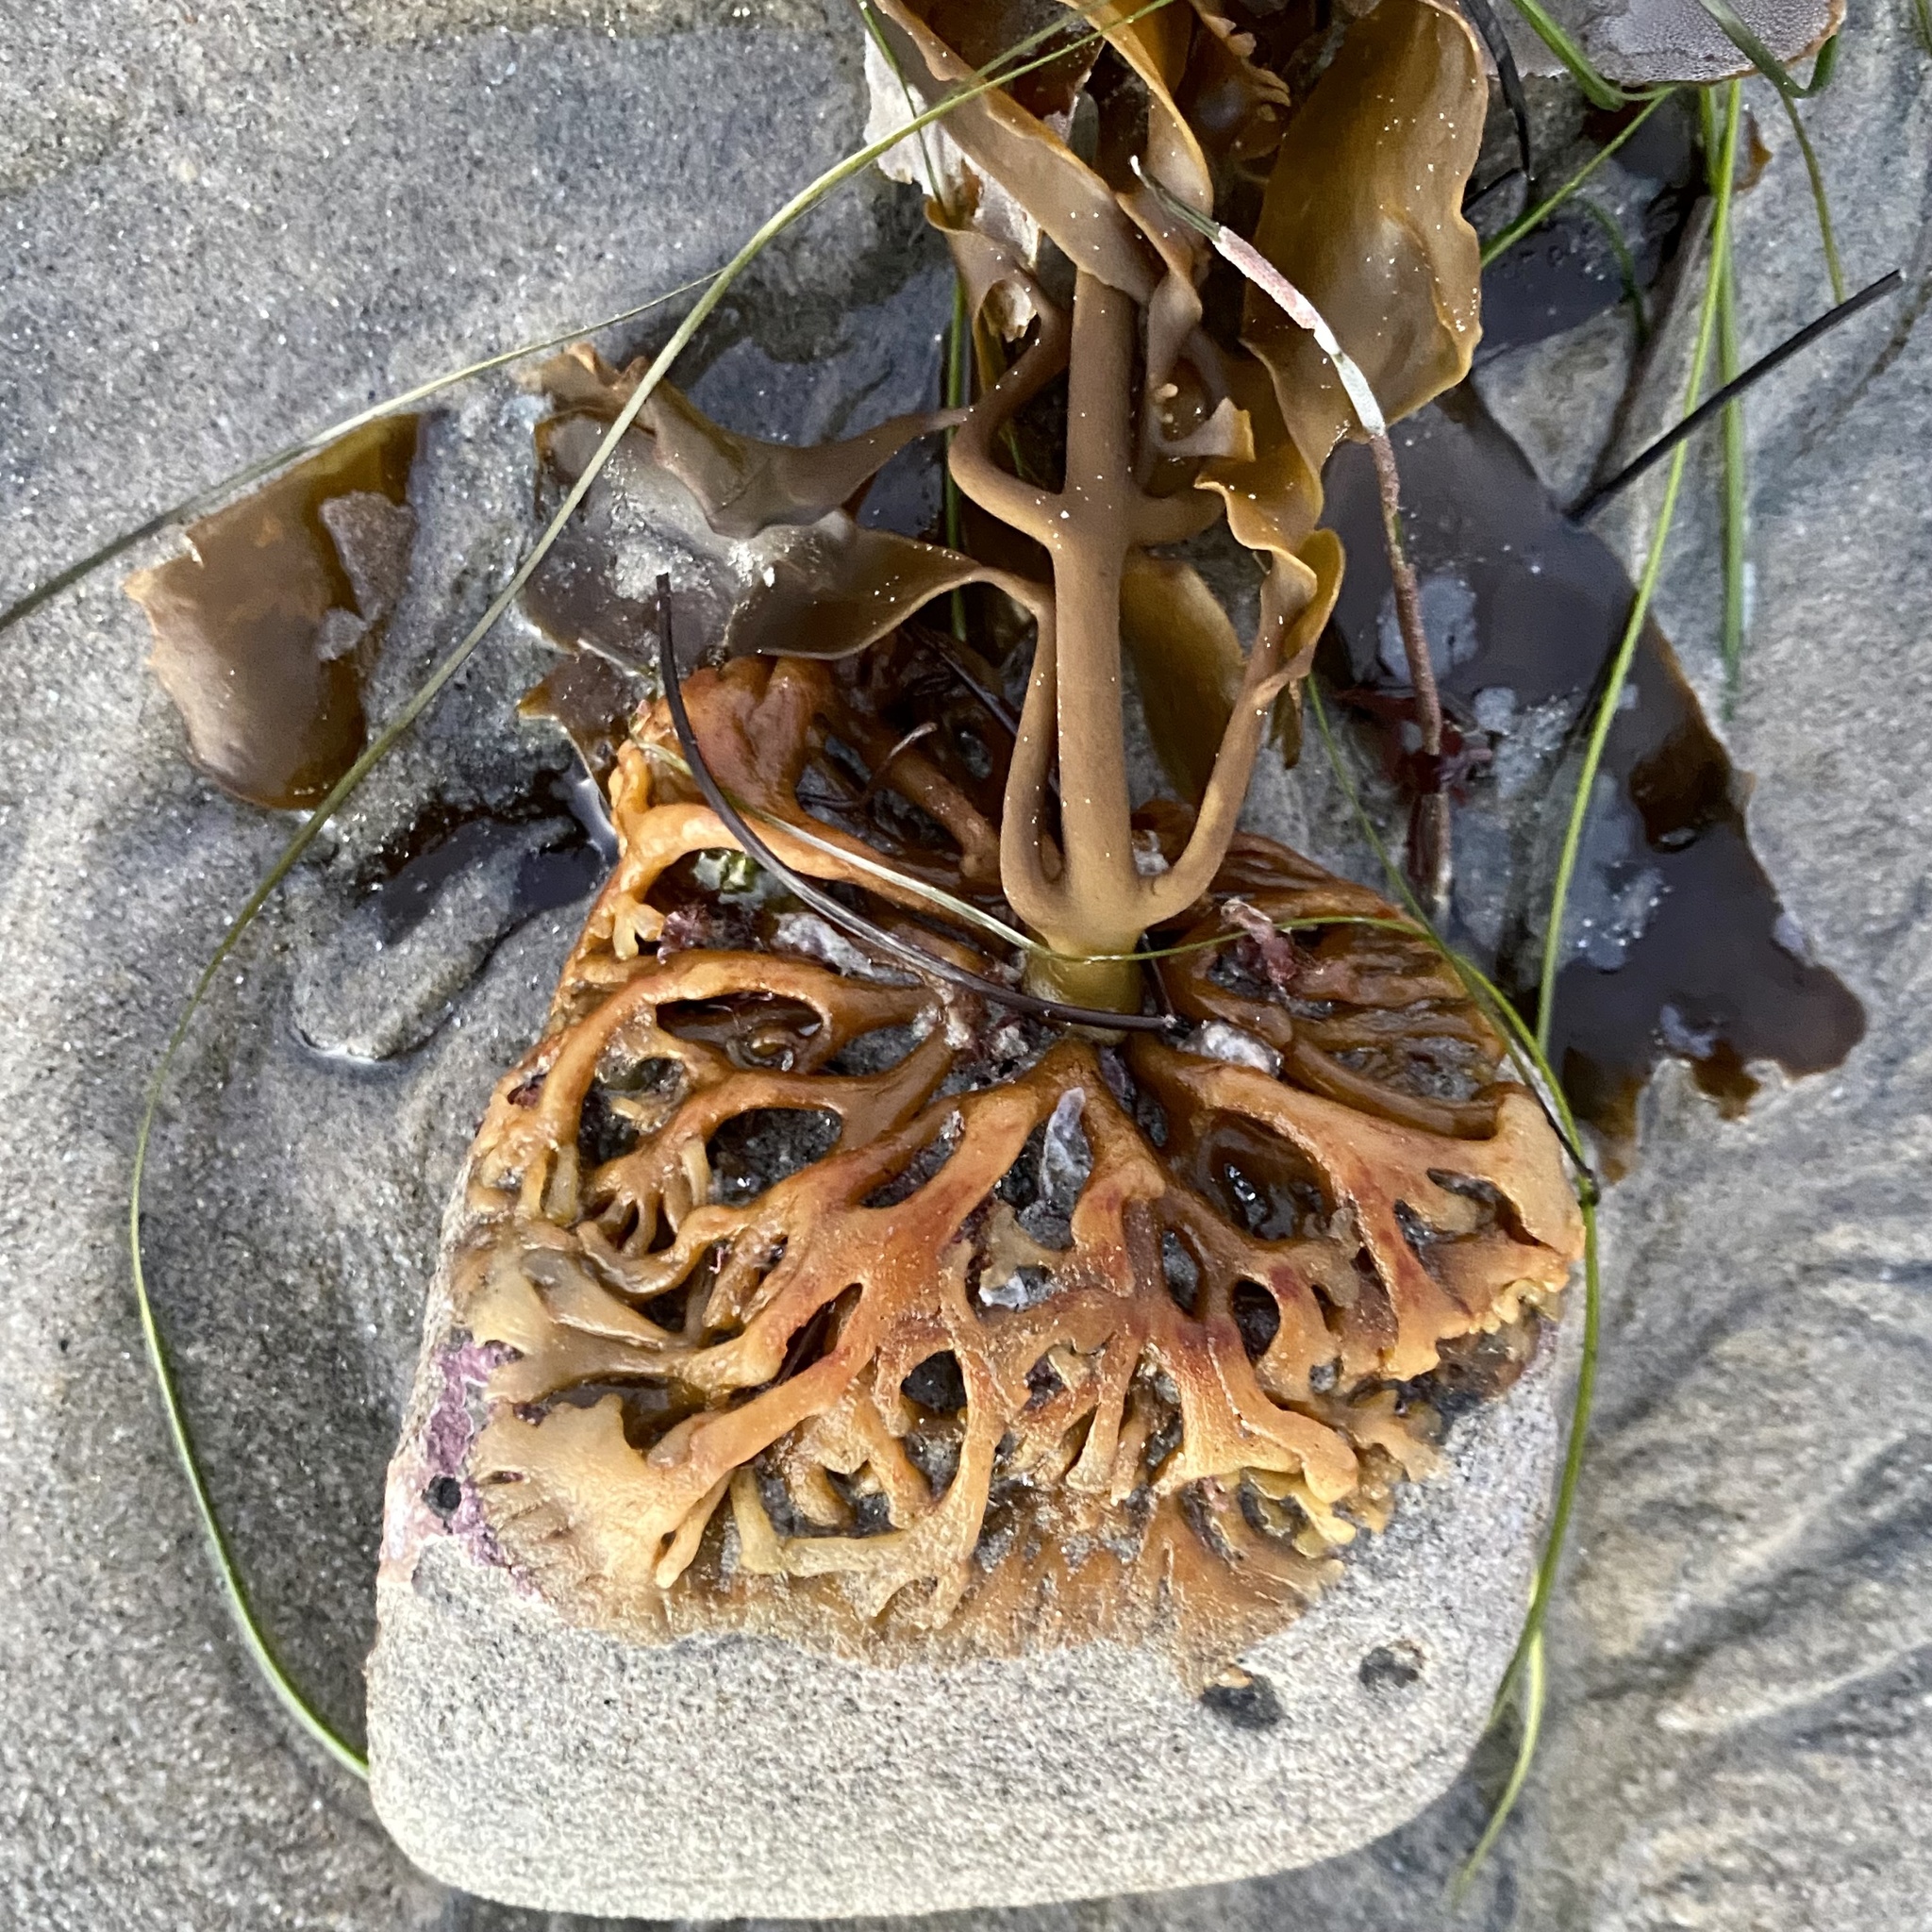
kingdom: Chromista
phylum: Ochrophyta
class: Phaeophyceae
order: Laminariales
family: Lessoniaceae
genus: Egregia
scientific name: Egregia menziesii
